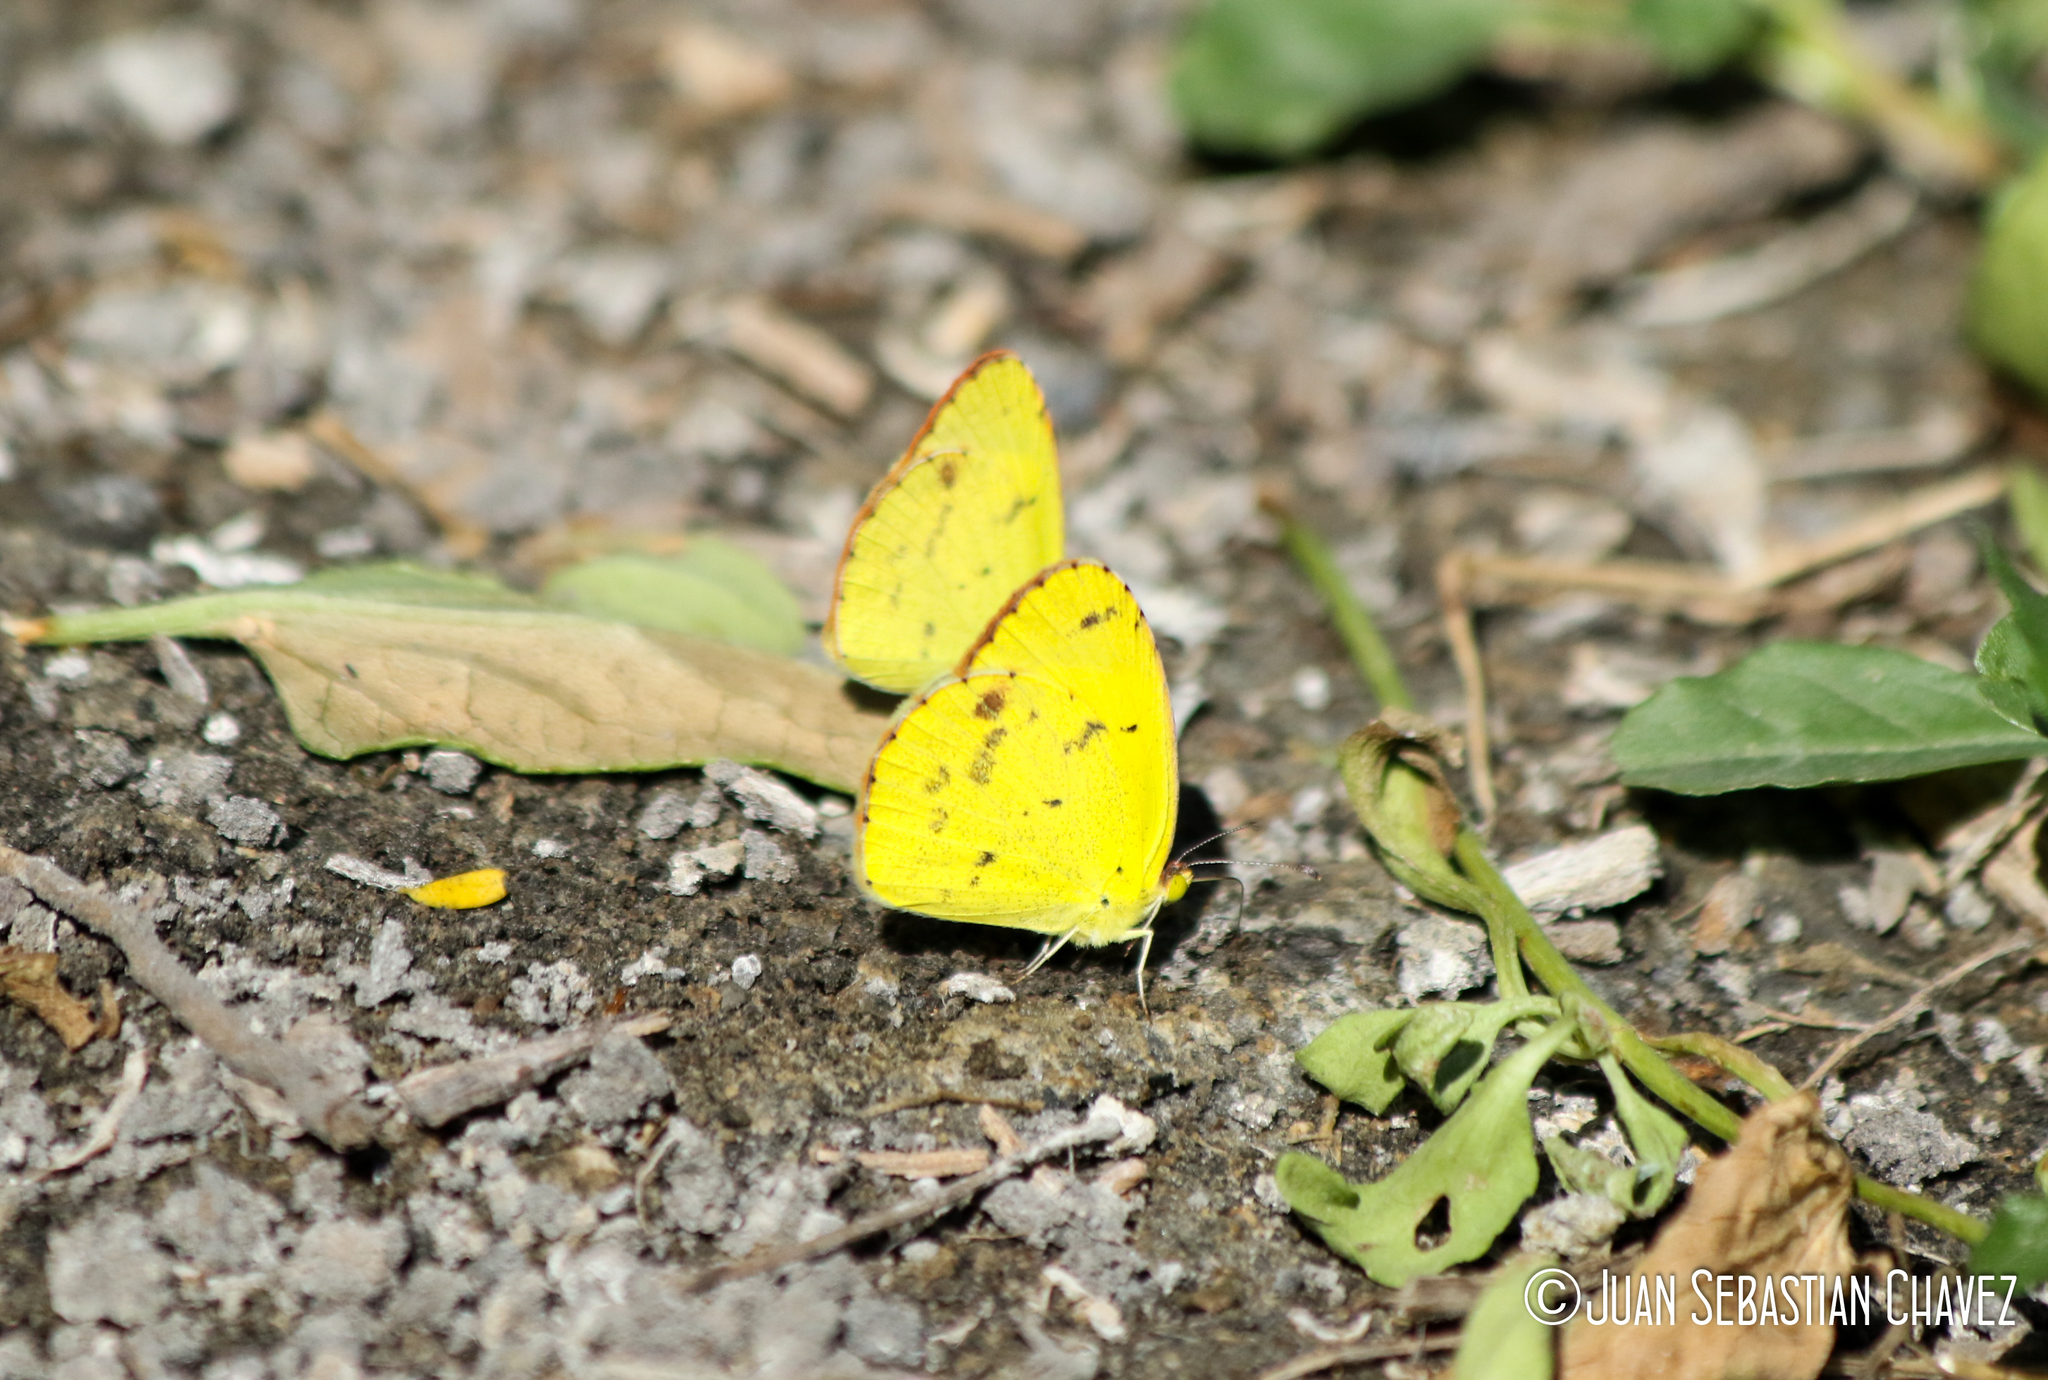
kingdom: Animalia
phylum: Arthropoda
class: Insecta
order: Lepidoptera
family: Pieridae
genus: Pyrisitia
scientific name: Pyrisitia lisa
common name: Little yellow
